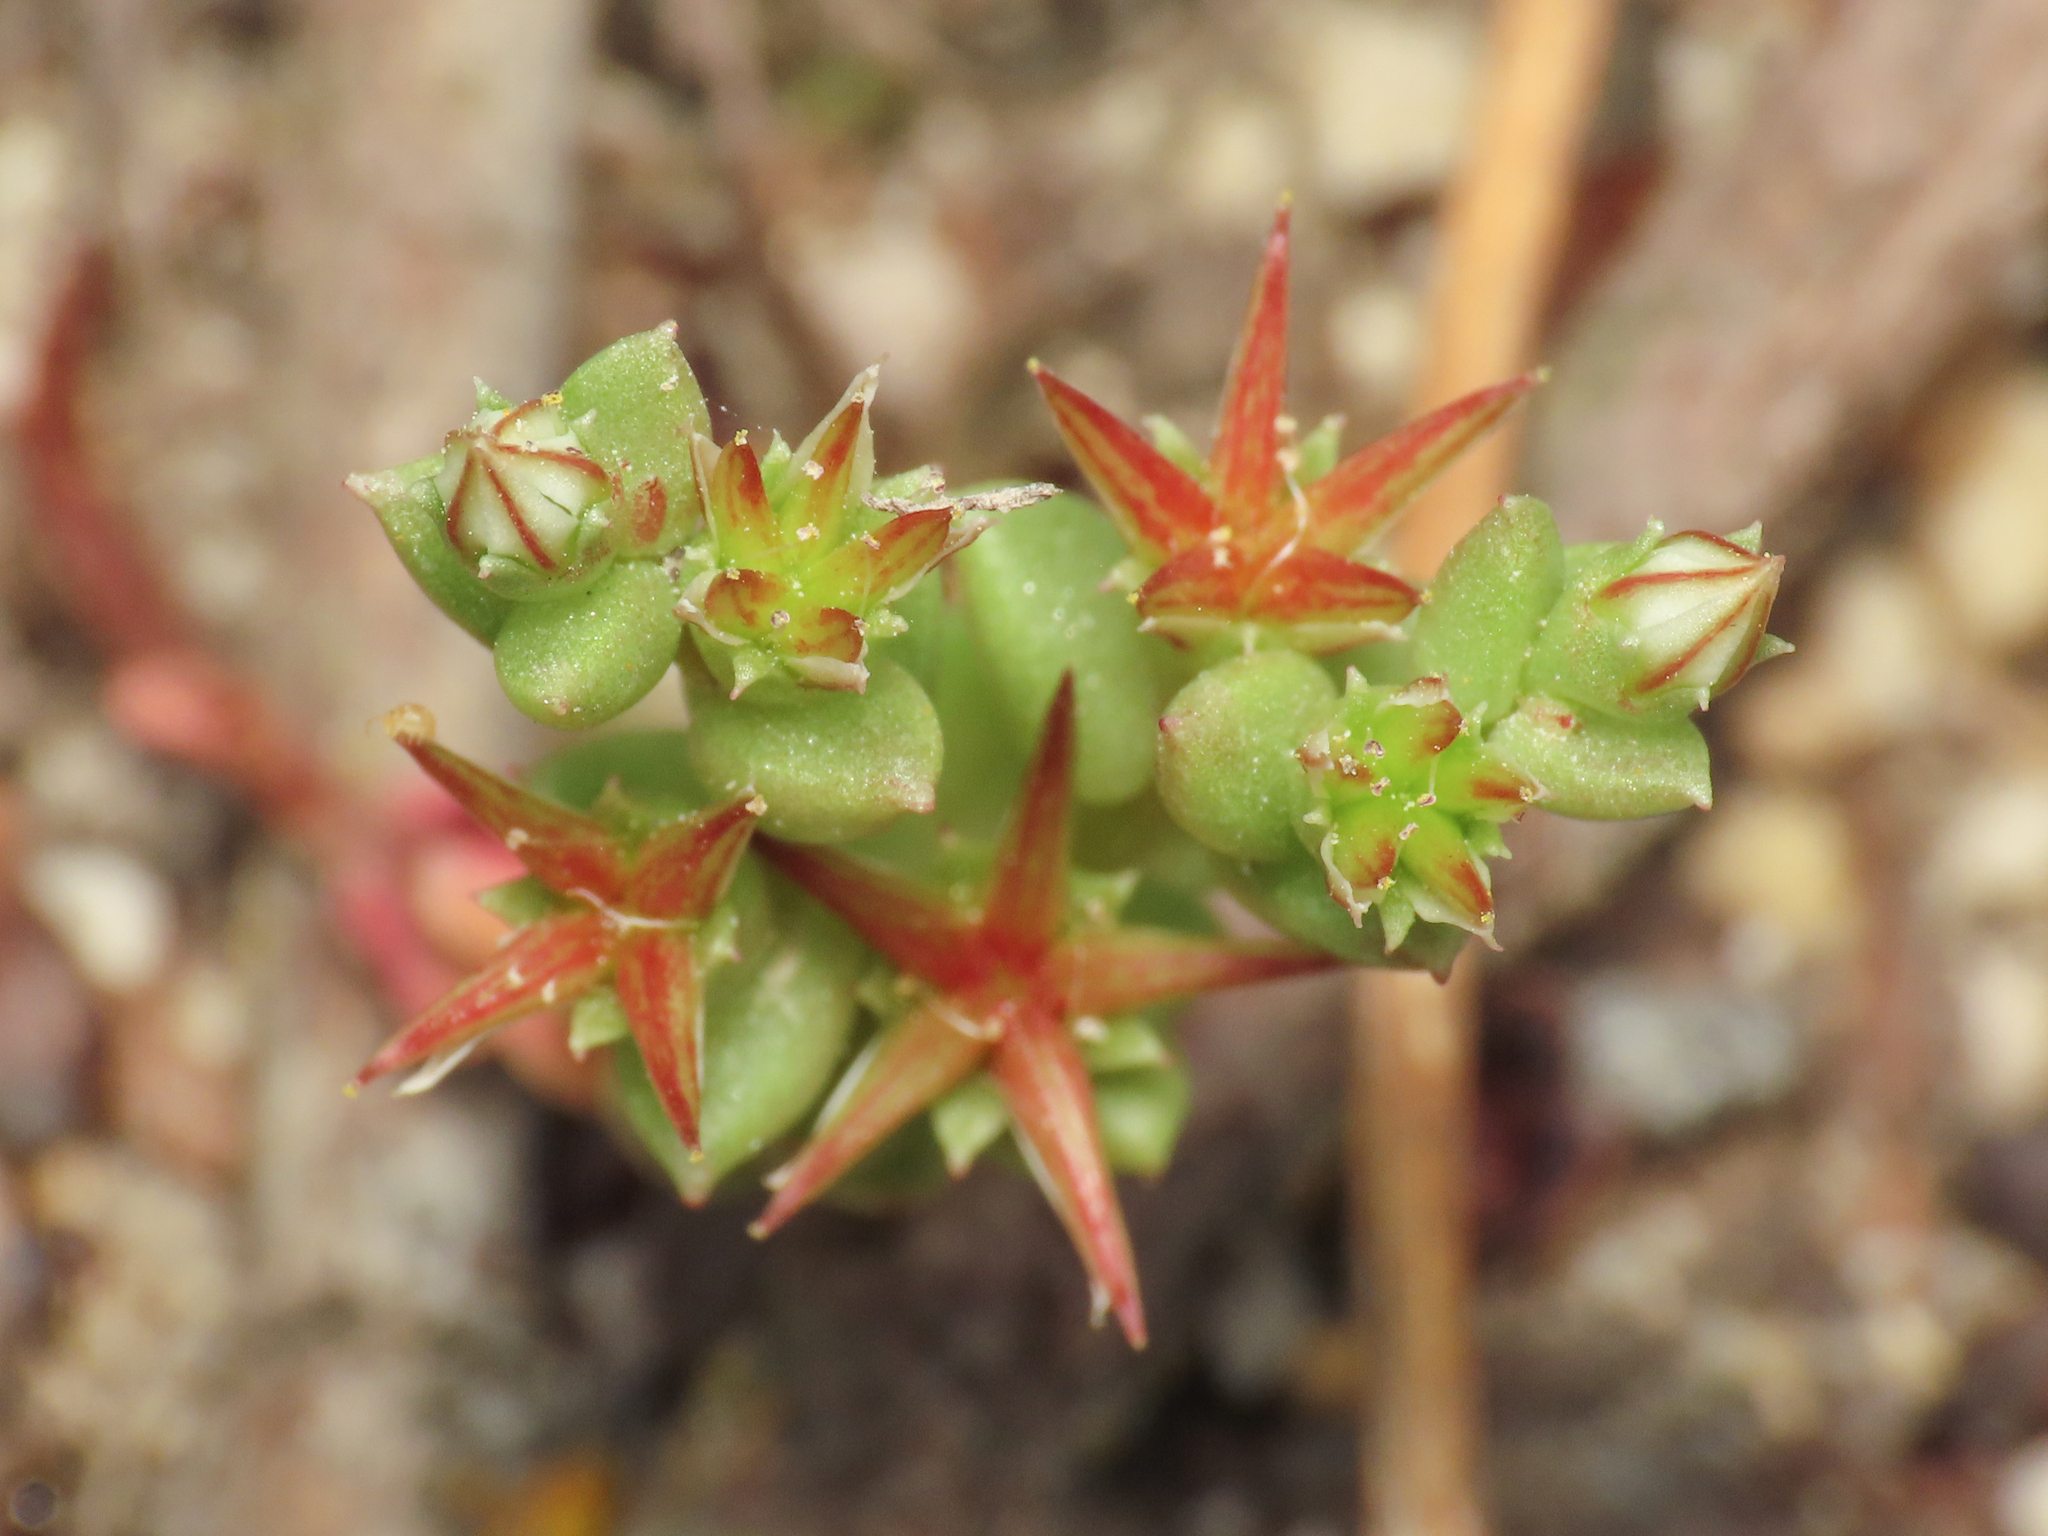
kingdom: Plantae
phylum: Tracheophyta
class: Magnoliopsida
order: Saxifragales
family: Crassulaceae
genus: Sedum
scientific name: Sedum cespitosum
